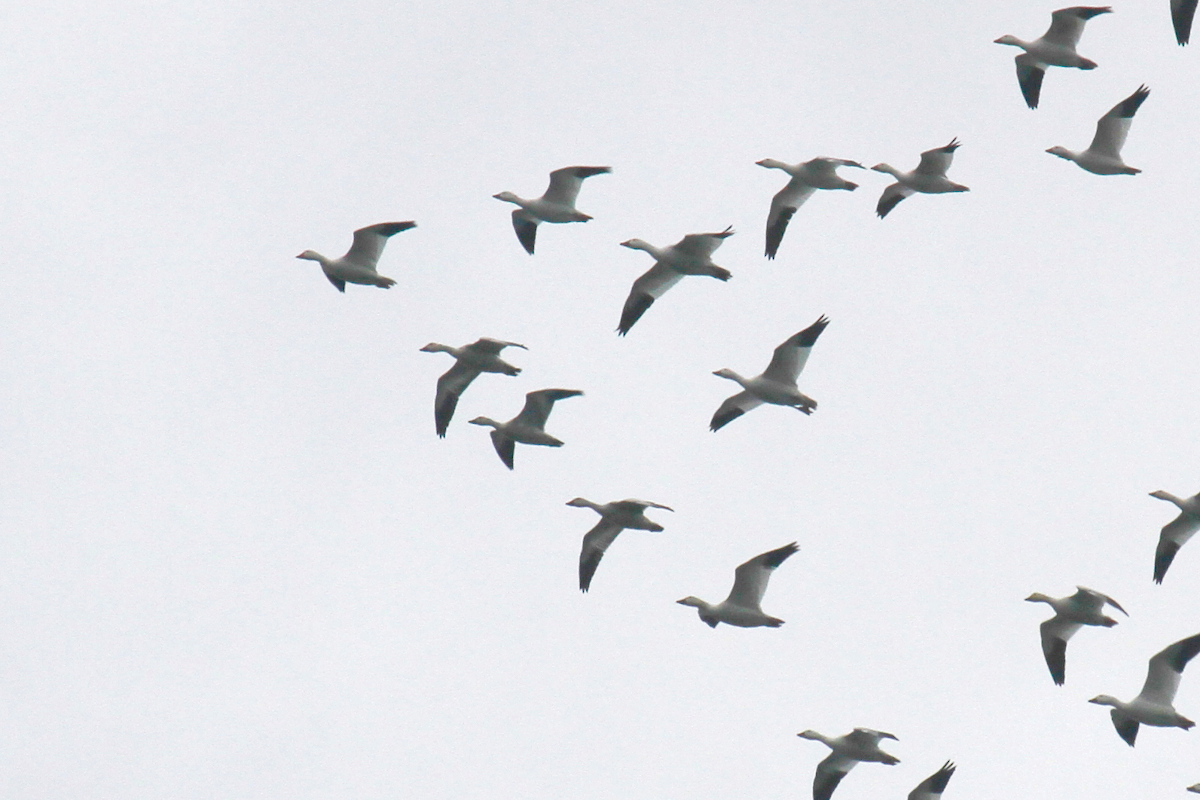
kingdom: Animalia
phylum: Chordata
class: Aves
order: Anseriformes
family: Anatidae
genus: Anser
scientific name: Anser caerulescens
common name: Snow goose
